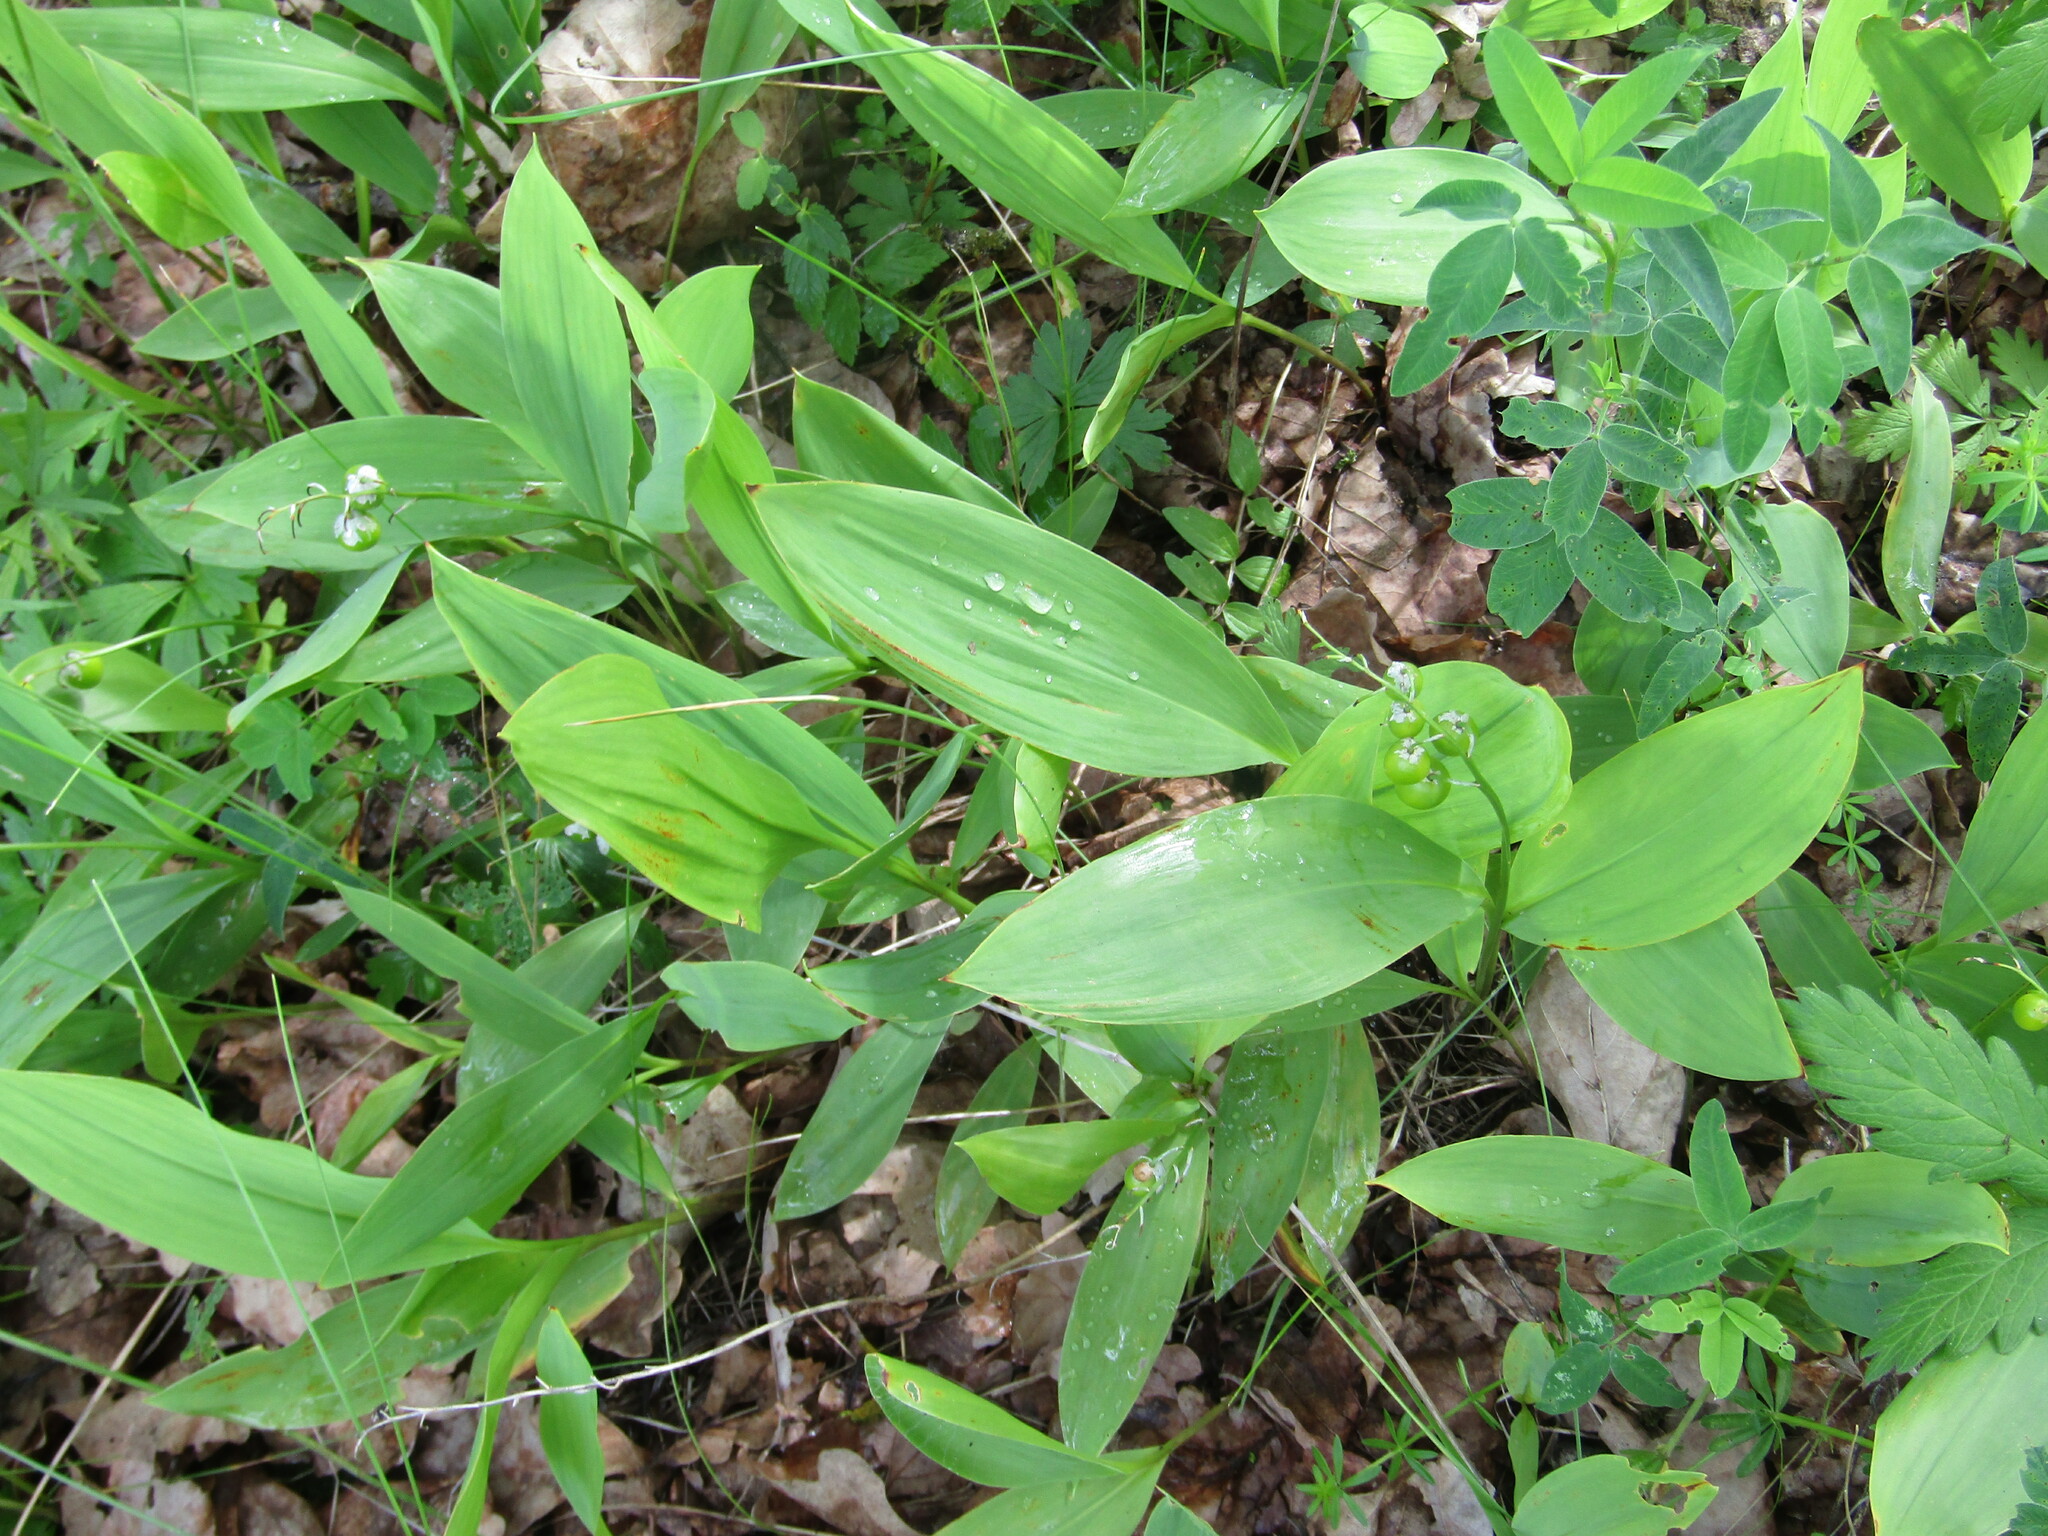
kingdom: Plantae
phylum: Tracheophyta
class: Liliopsida
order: Asparagales
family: Asparagaceae
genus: Convallaria
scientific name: Convallaria majalis
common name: Lily-of-the-valley
